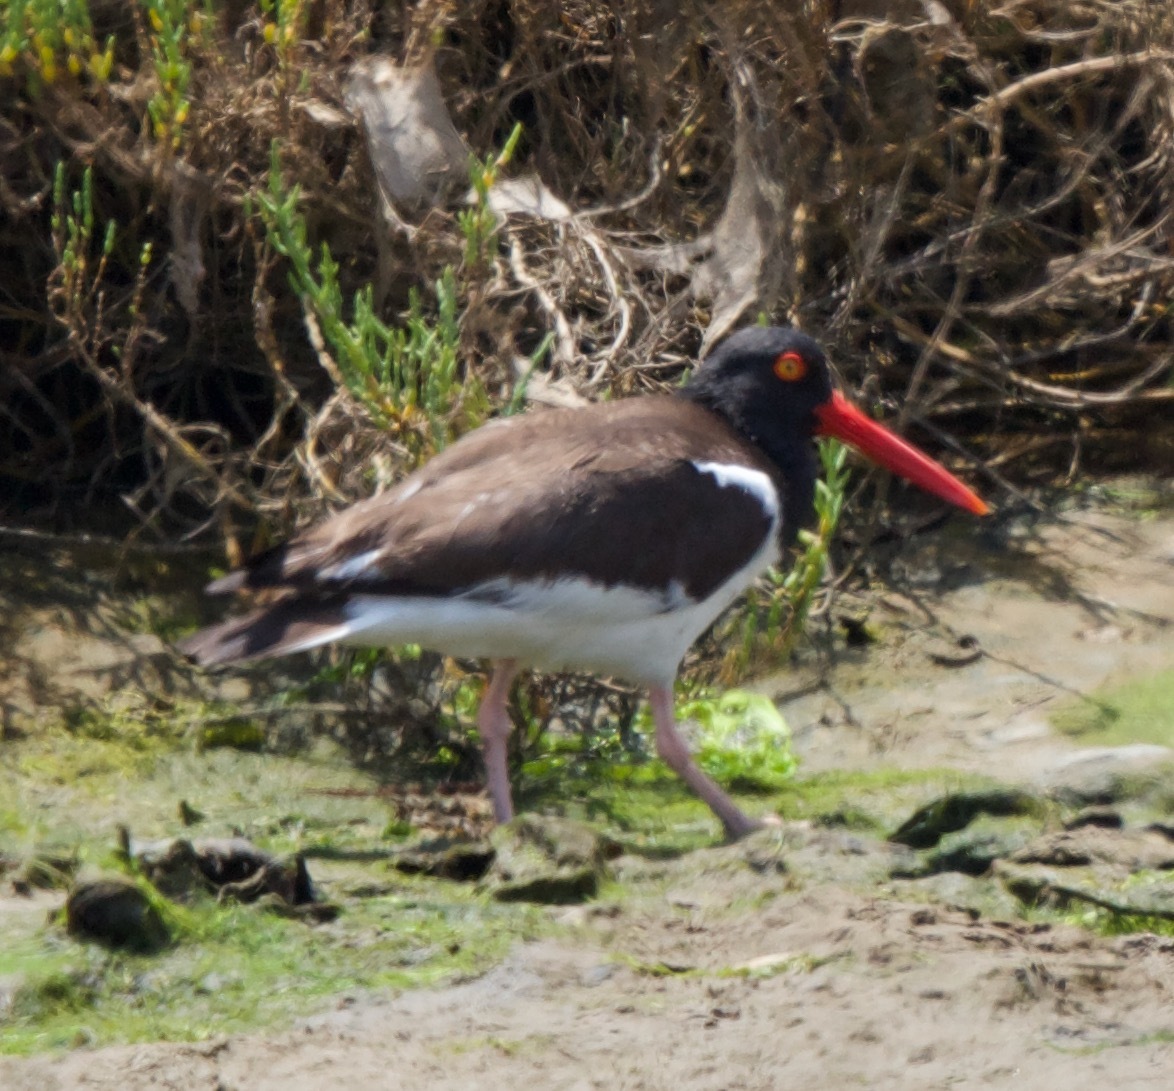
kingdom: Animalia
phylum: Chordata
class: Aves
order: Charadriiformes
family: Haematopodidae
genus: Haematopus
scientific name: Haematopus palliatus
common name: American oystercatcher
